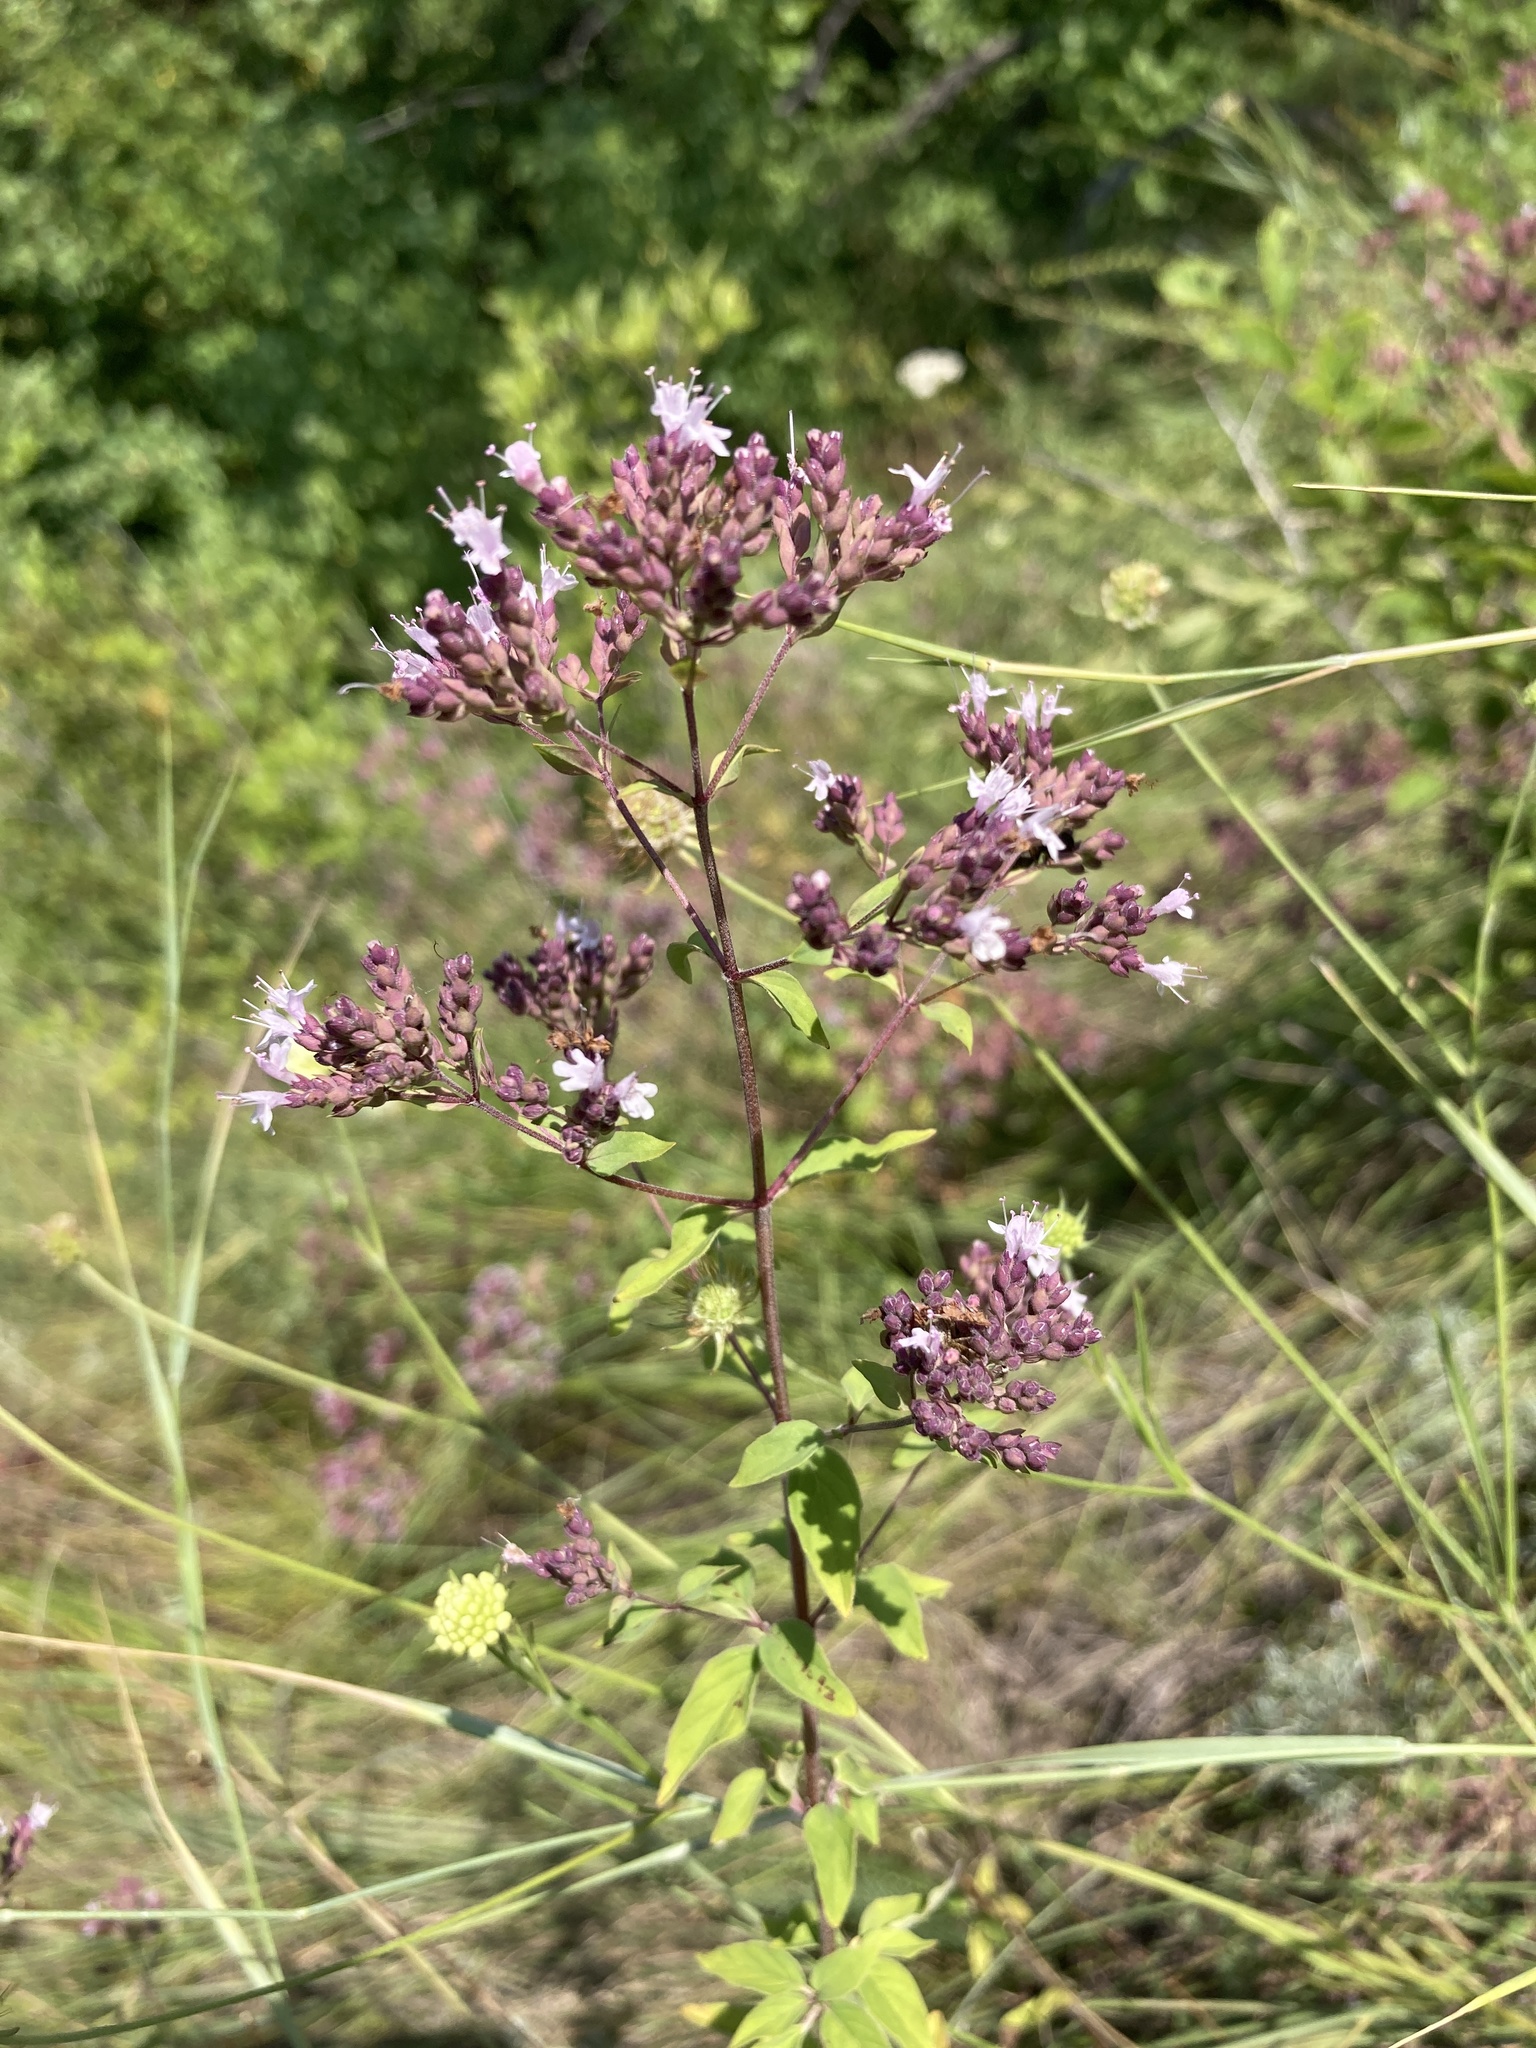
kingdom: Plantae
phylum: Tracheophyta
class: Magnoliopsida
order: Lamiales
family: Lamiaceae
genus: Origanum
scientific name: Origanum vulgare
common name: Wild marjoram
